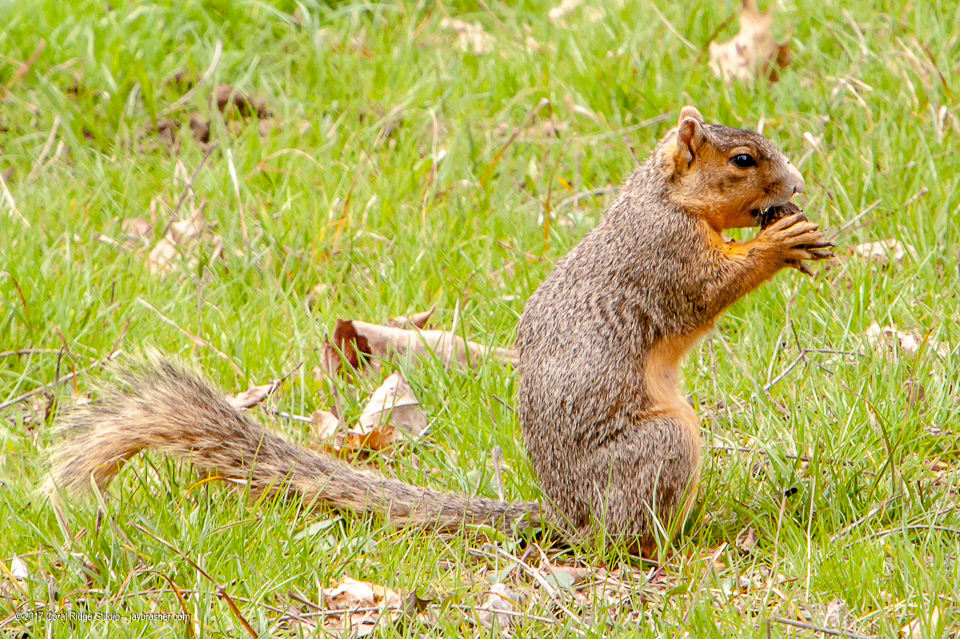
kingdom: Animalia
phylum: Chordata
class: Mammalia
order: Rodentia
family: Sciuridae
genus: Sciurus
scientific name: Sciurus niger
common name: Fox squirrel
